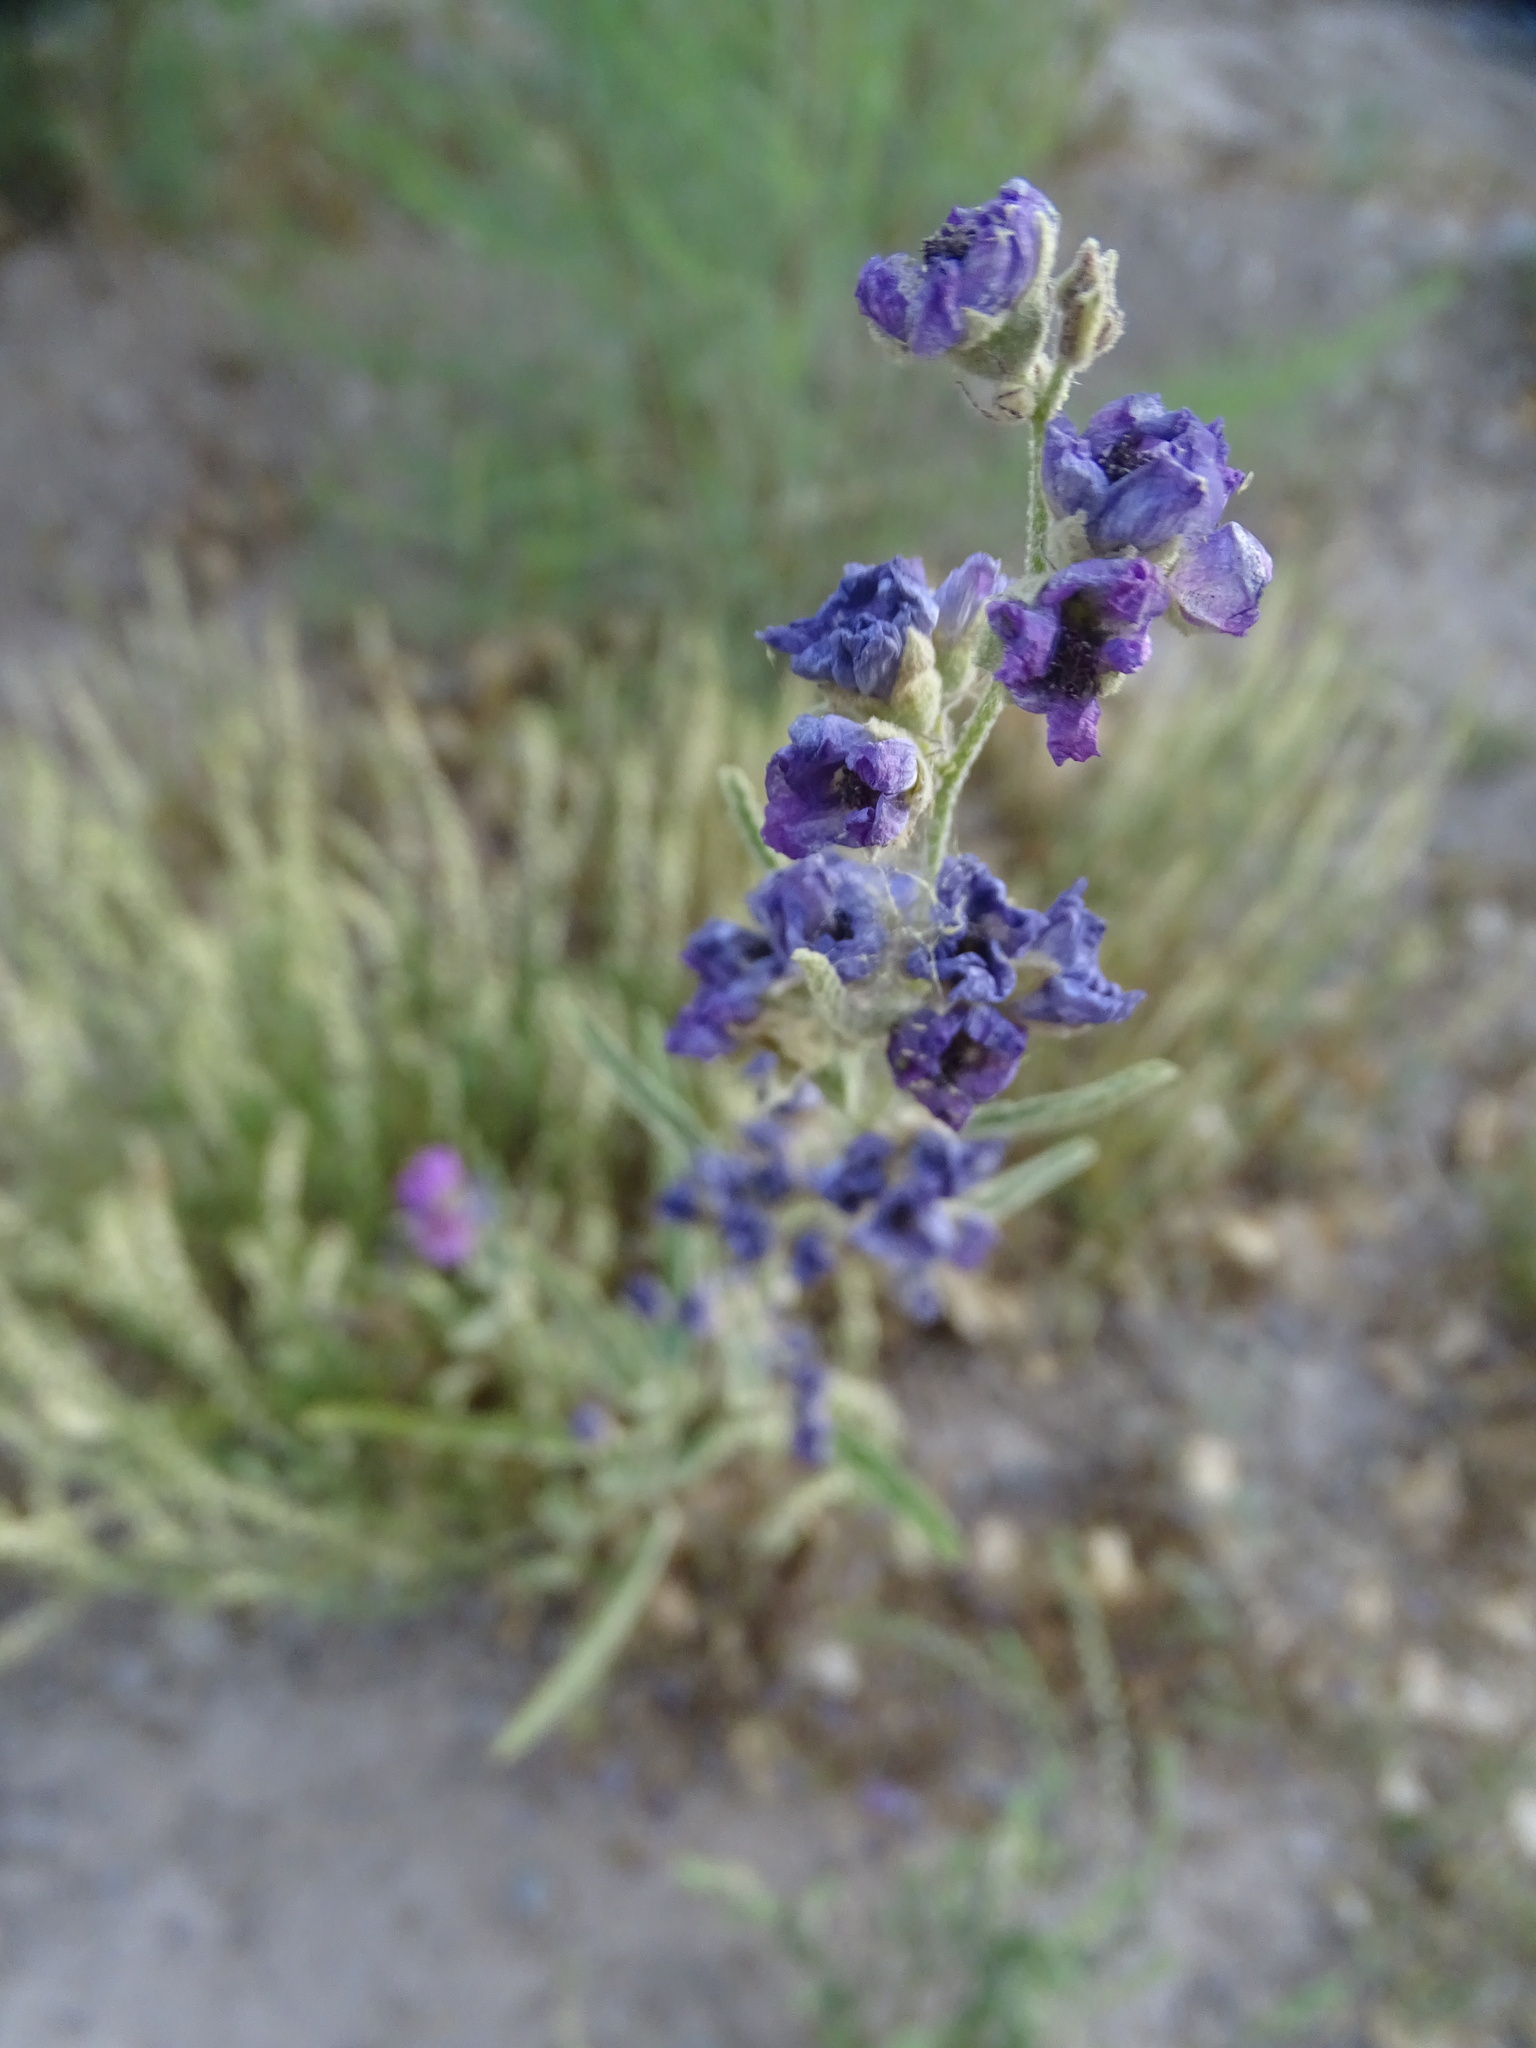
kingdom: Plantae
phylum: Tracheophyta
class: Magnoliopsida
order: Malvales
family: Malvaceae
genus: Sphaeralcea
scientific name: Sphaeralcea angustifolia
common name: Copper globe-mallow
